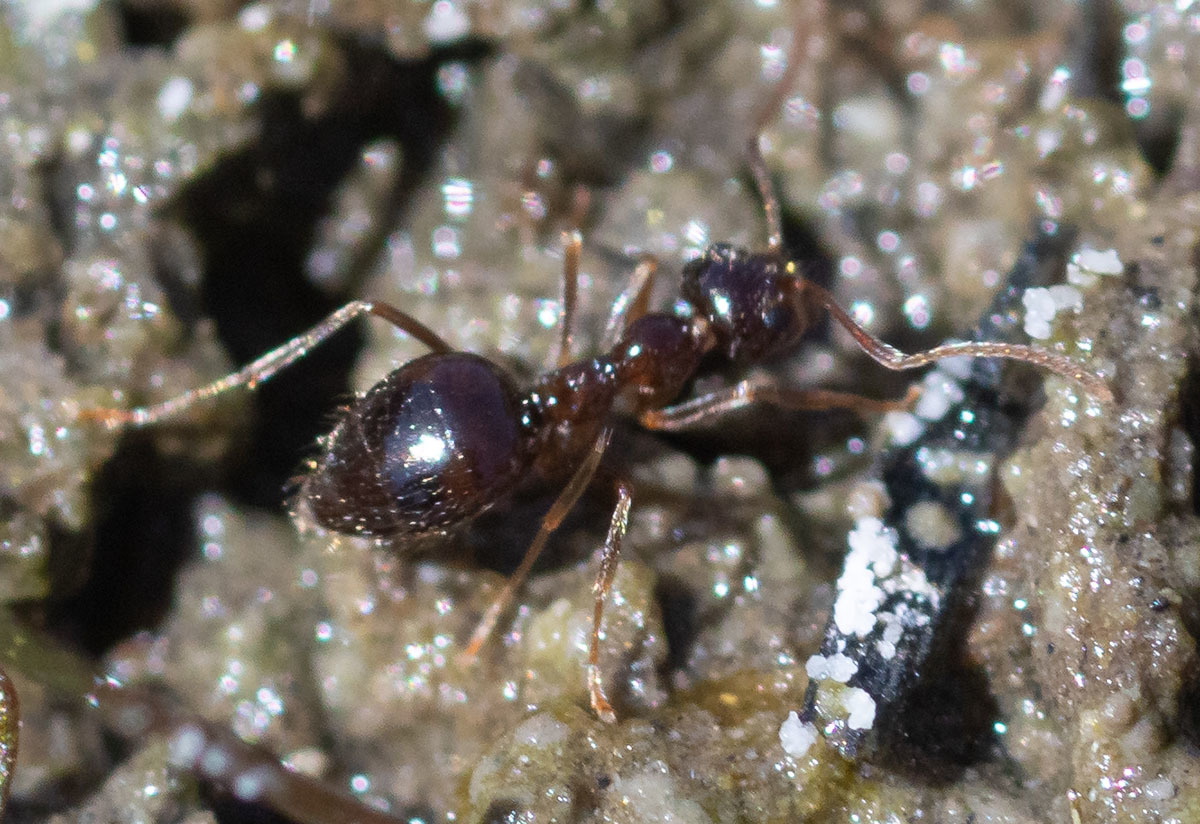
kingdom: Animalia
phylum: Arthropoda
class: Insecta
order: Hymenoptera
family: Formicidae
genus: Prenolepis
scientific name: Prenolepis imparis
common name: Small honey ant
